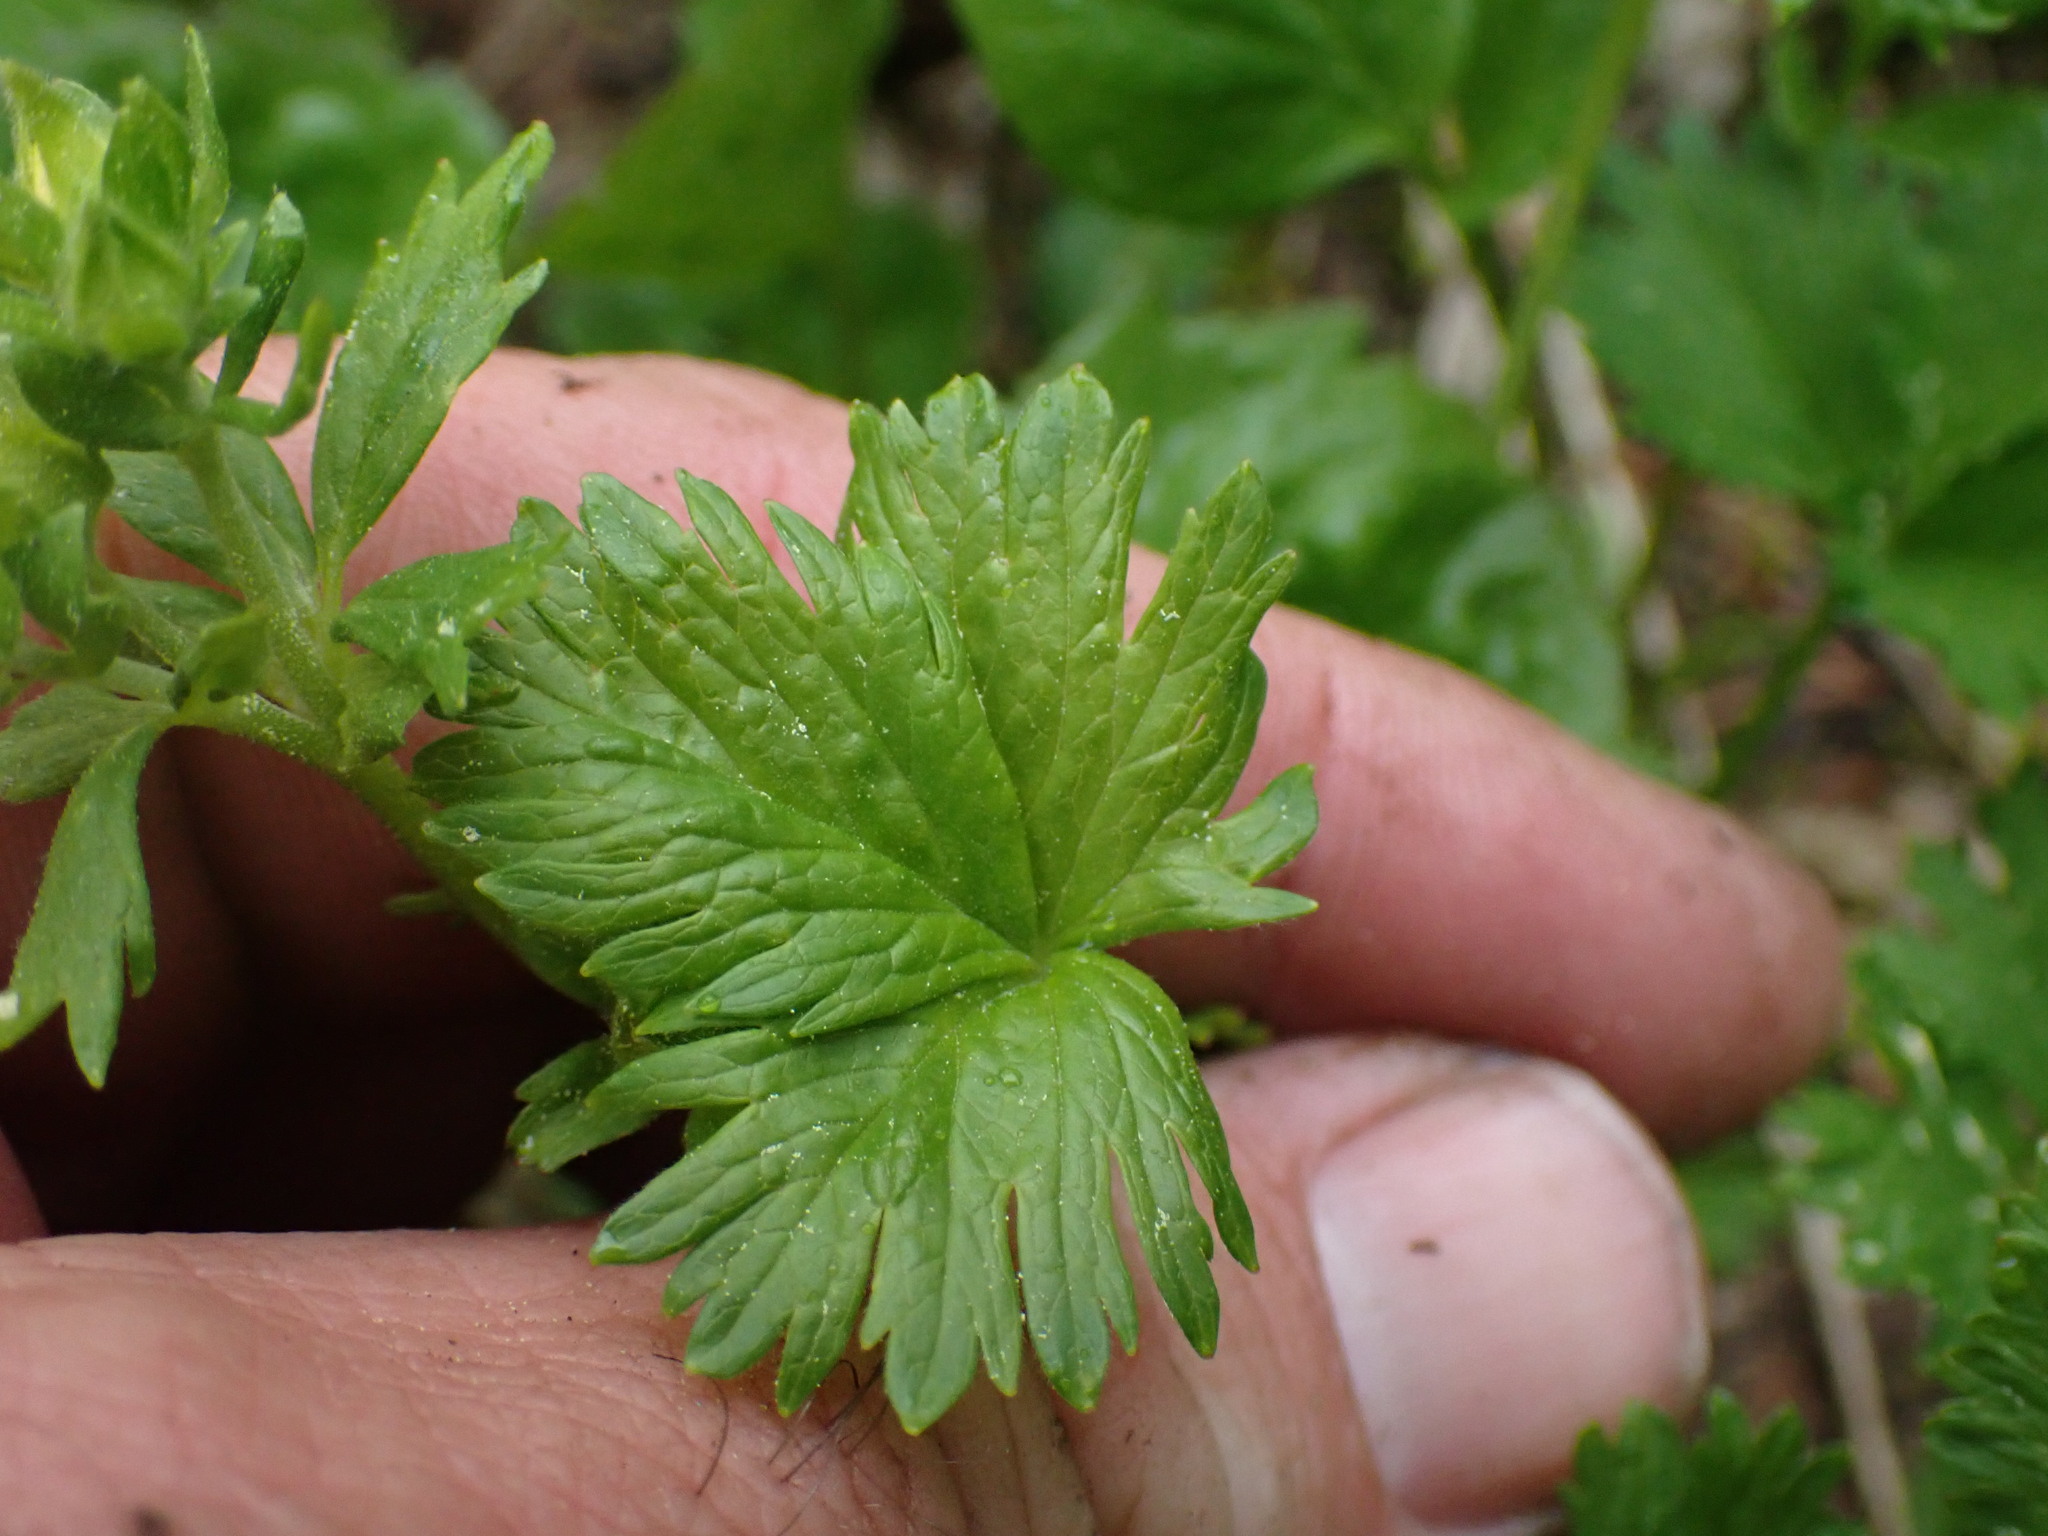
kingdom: Plantae
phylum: Tracheophyta
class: Magnoliopsida
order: Rosales
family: Rosaceae
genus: Potentilla
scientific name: Potentilla flabellifolia
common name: Mount rainier cinquefoil
